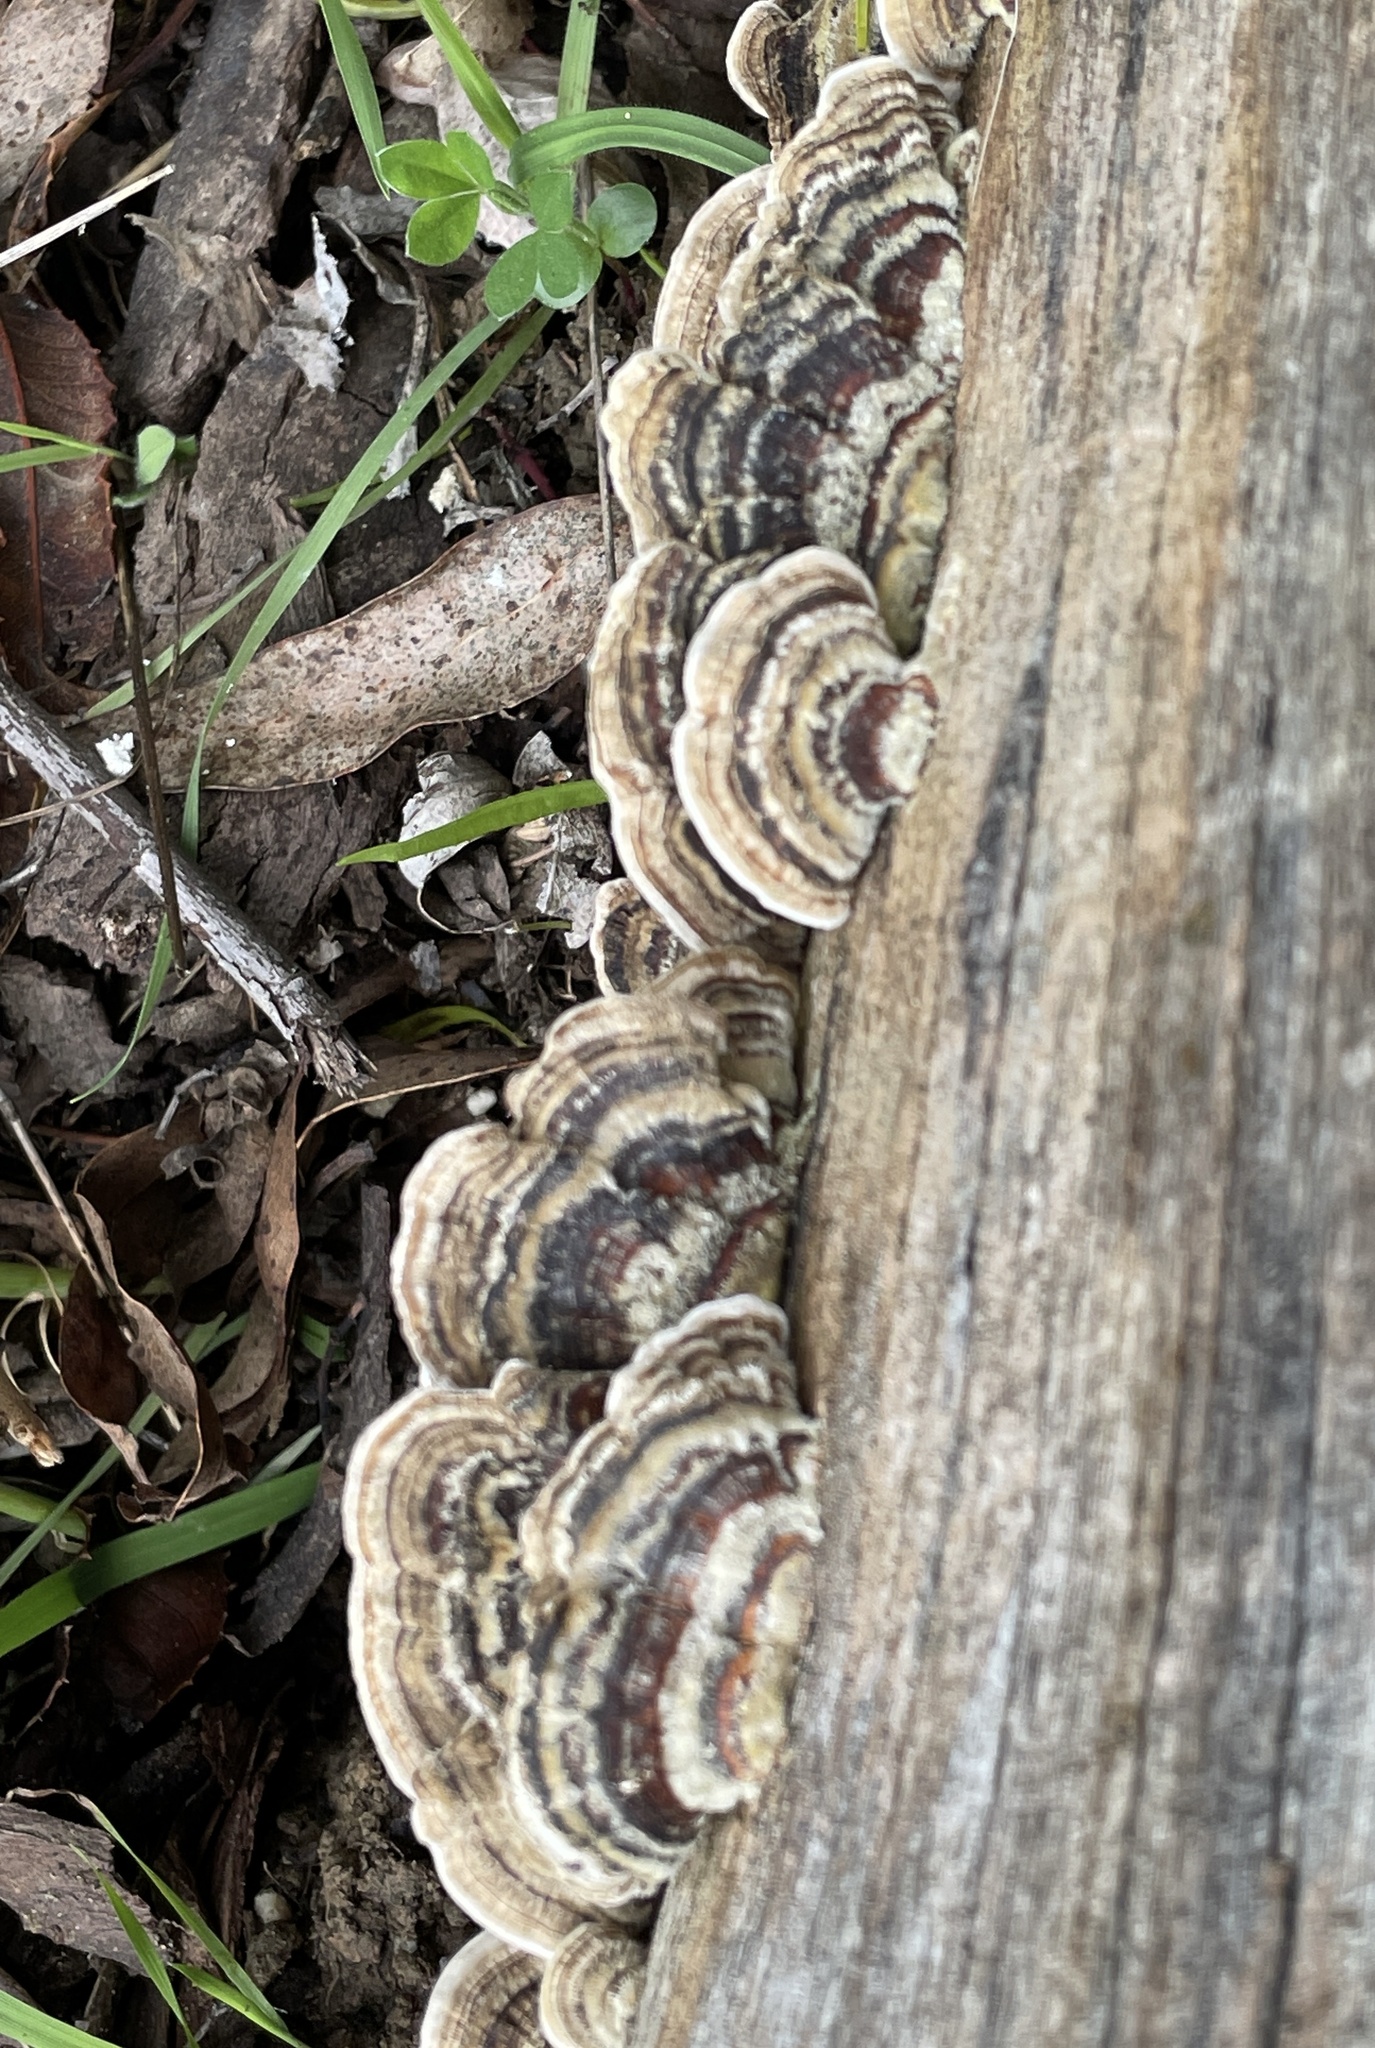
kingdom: Fungi
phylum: Basidiomycota
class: Agaricomycetes
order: Polyporales
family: Polyporaceae
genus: Trametes
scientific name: Trametes versicolor
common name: Turkeytail
